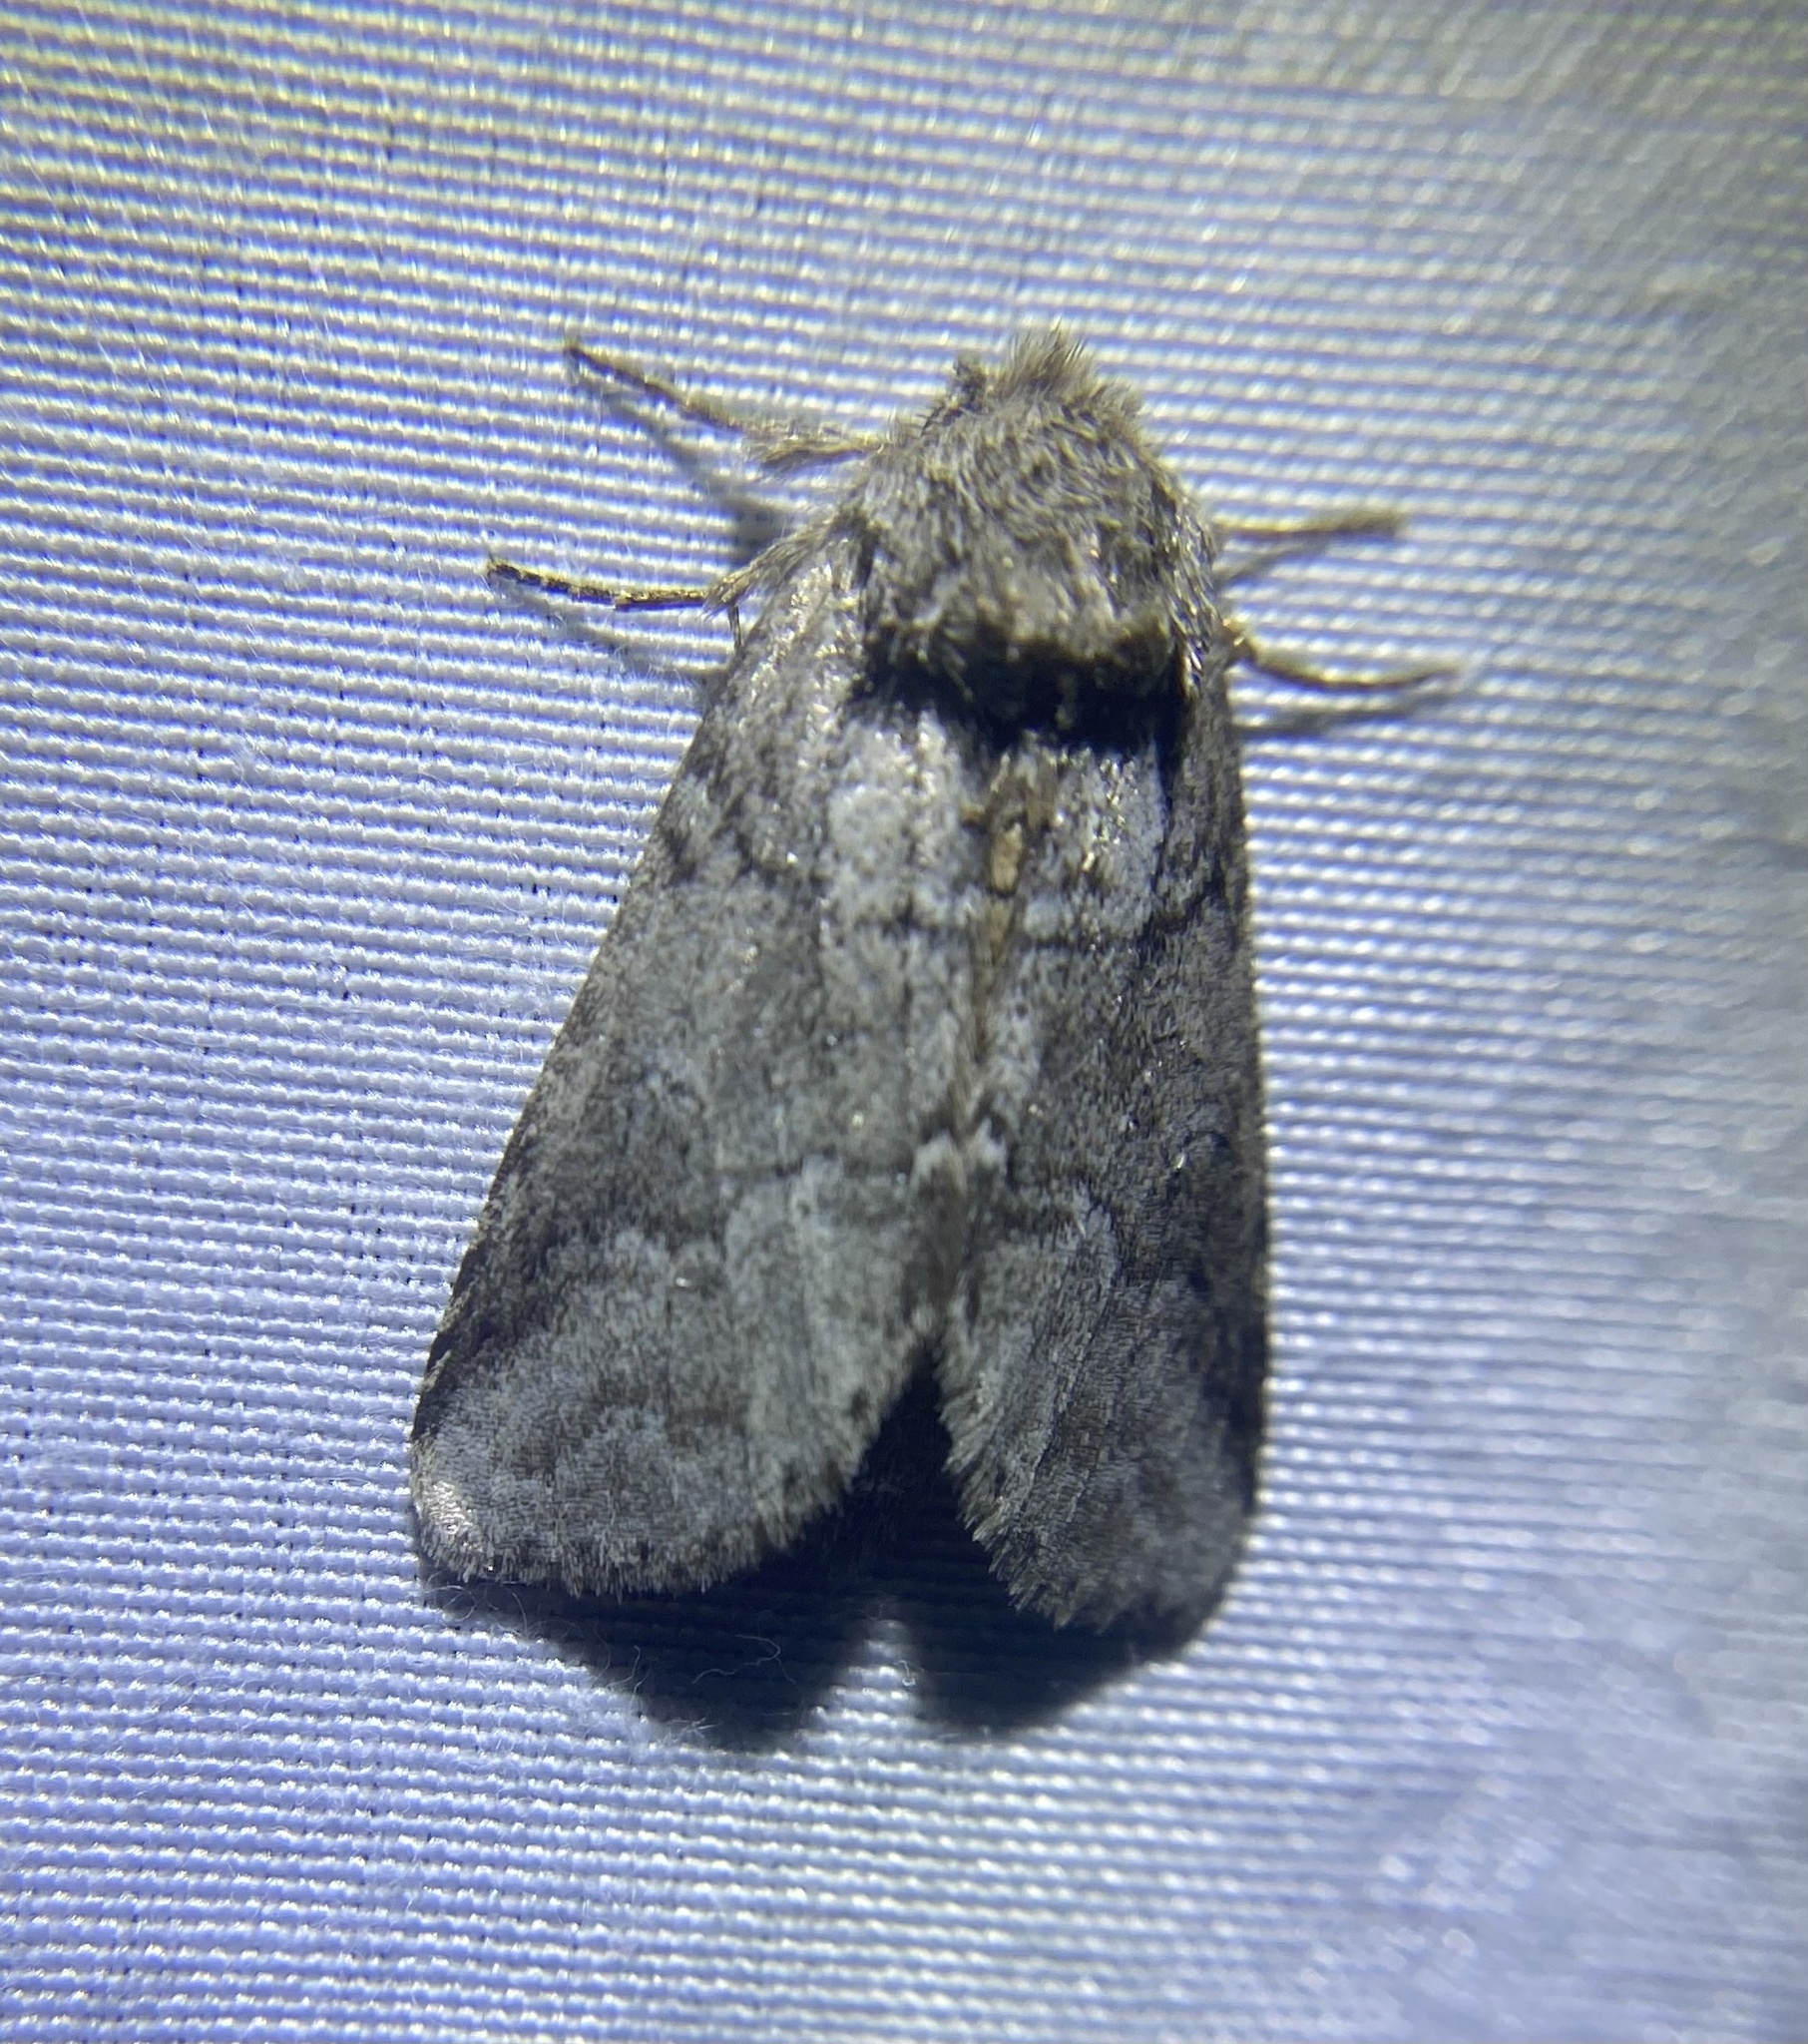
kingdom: Animalia
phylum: Arthropoda
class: Insecta
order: Lepidoptera
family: Notodontidae
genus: Lochmaeus
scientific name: Lochmaeus bilineata
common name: Double-lined prominent
